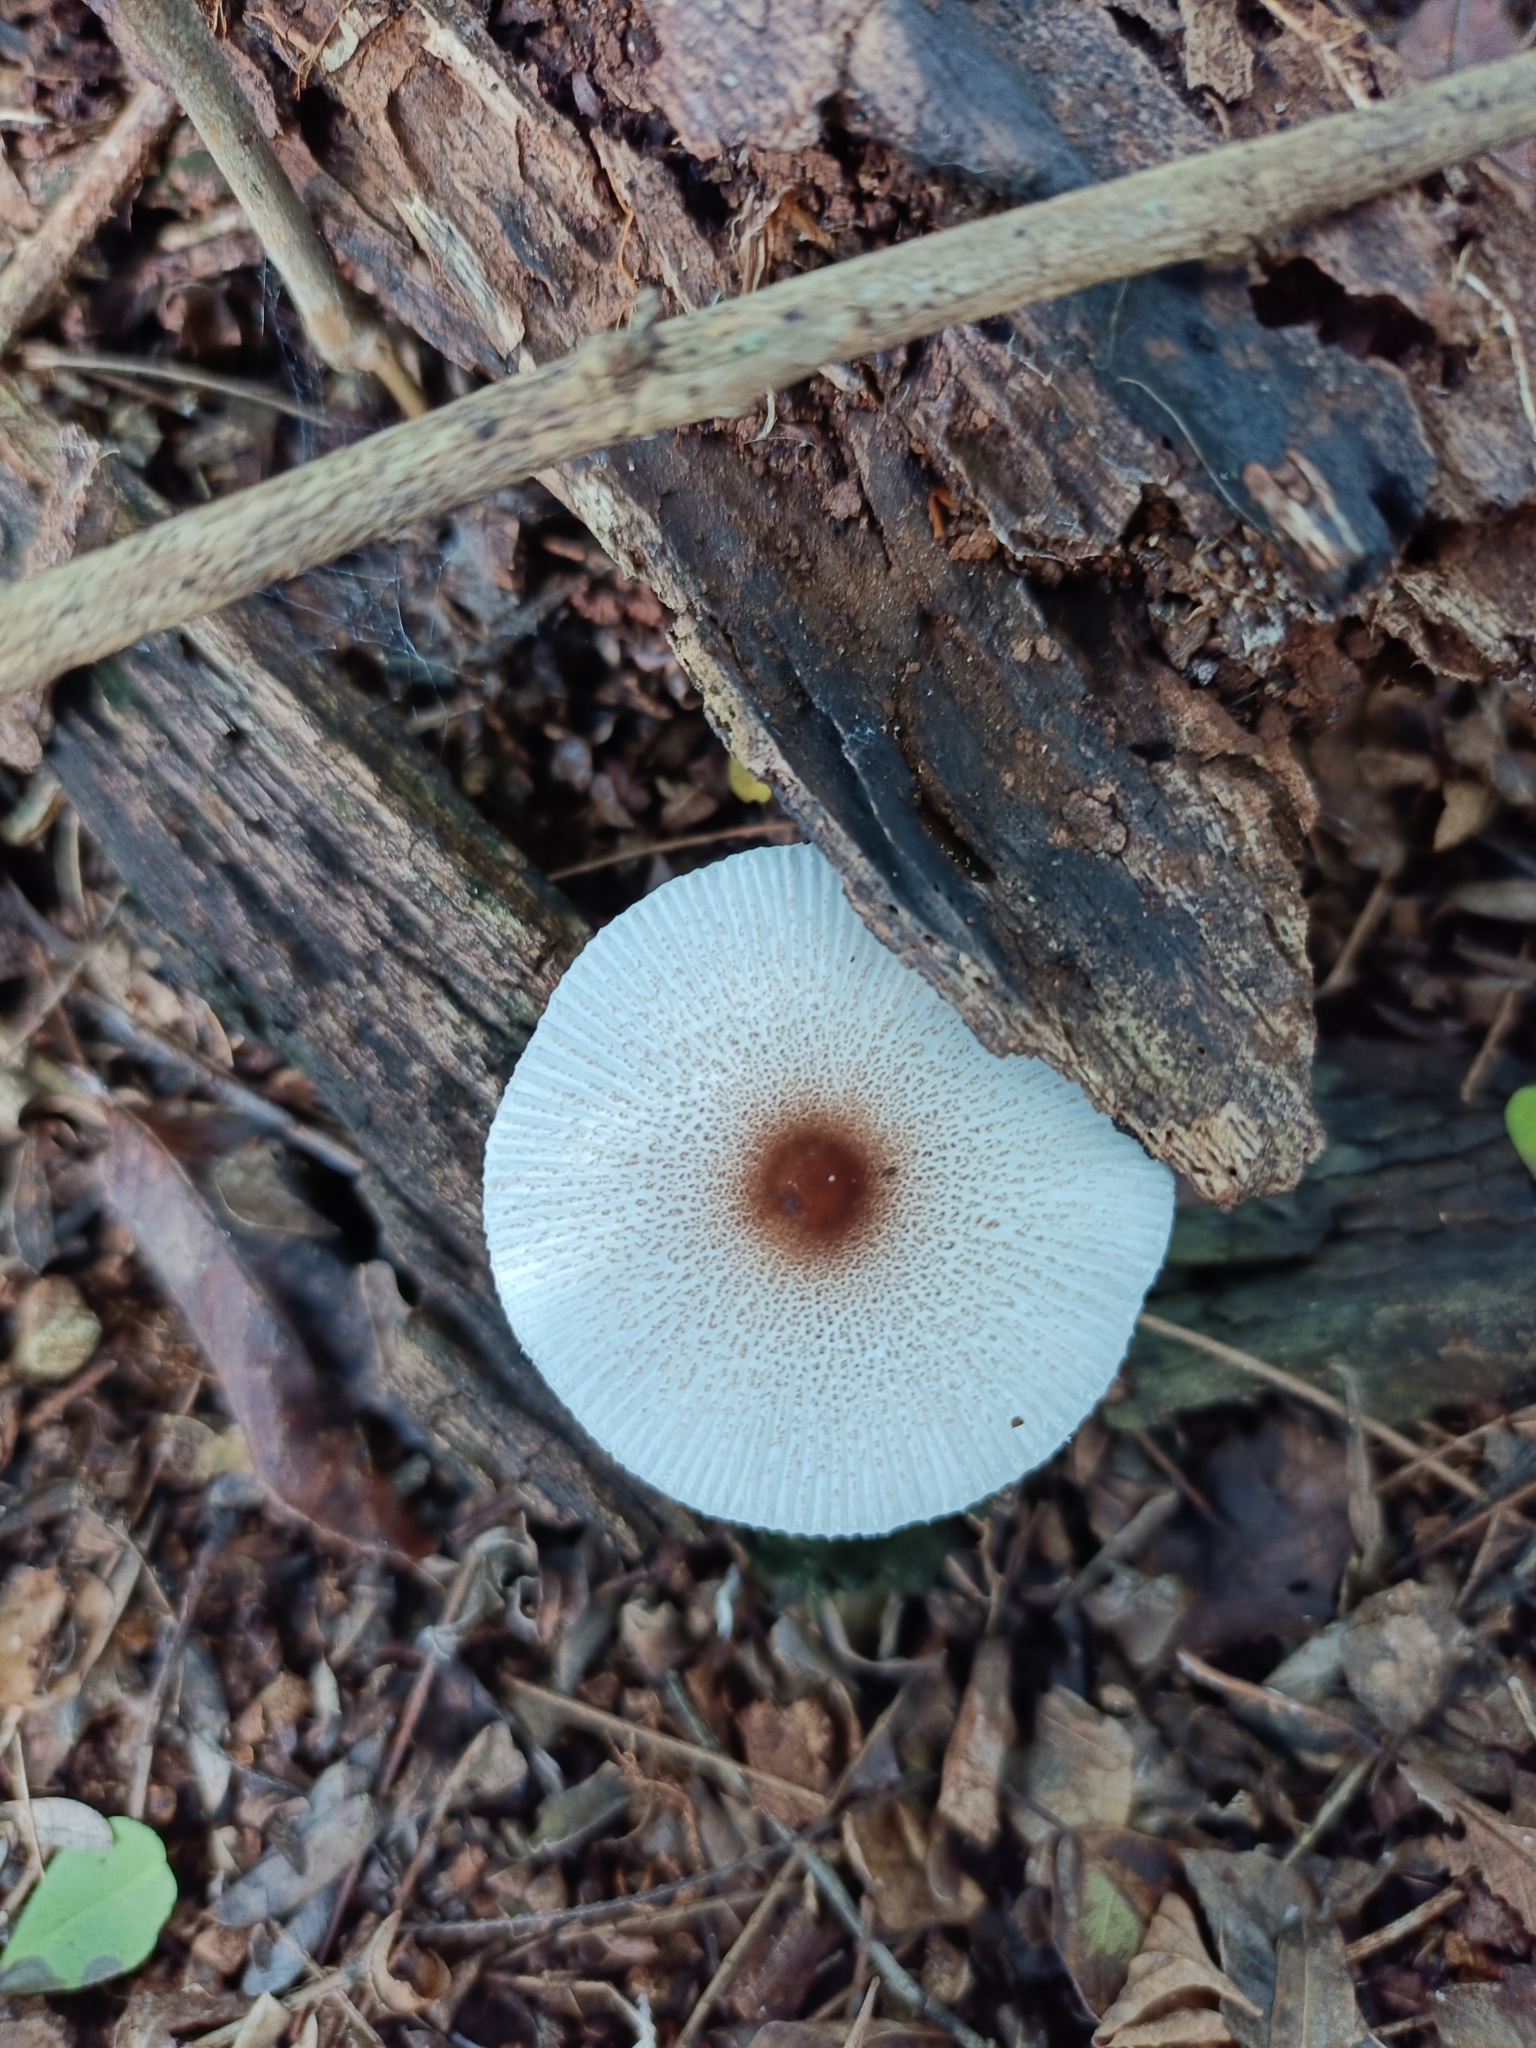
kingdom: Fungi
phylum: Basidiomycota
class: Agaricomycetes
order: Agaricales
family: Agaricaceae
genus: Leucocoprinus
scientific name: Leucocoprinus ianthinus
